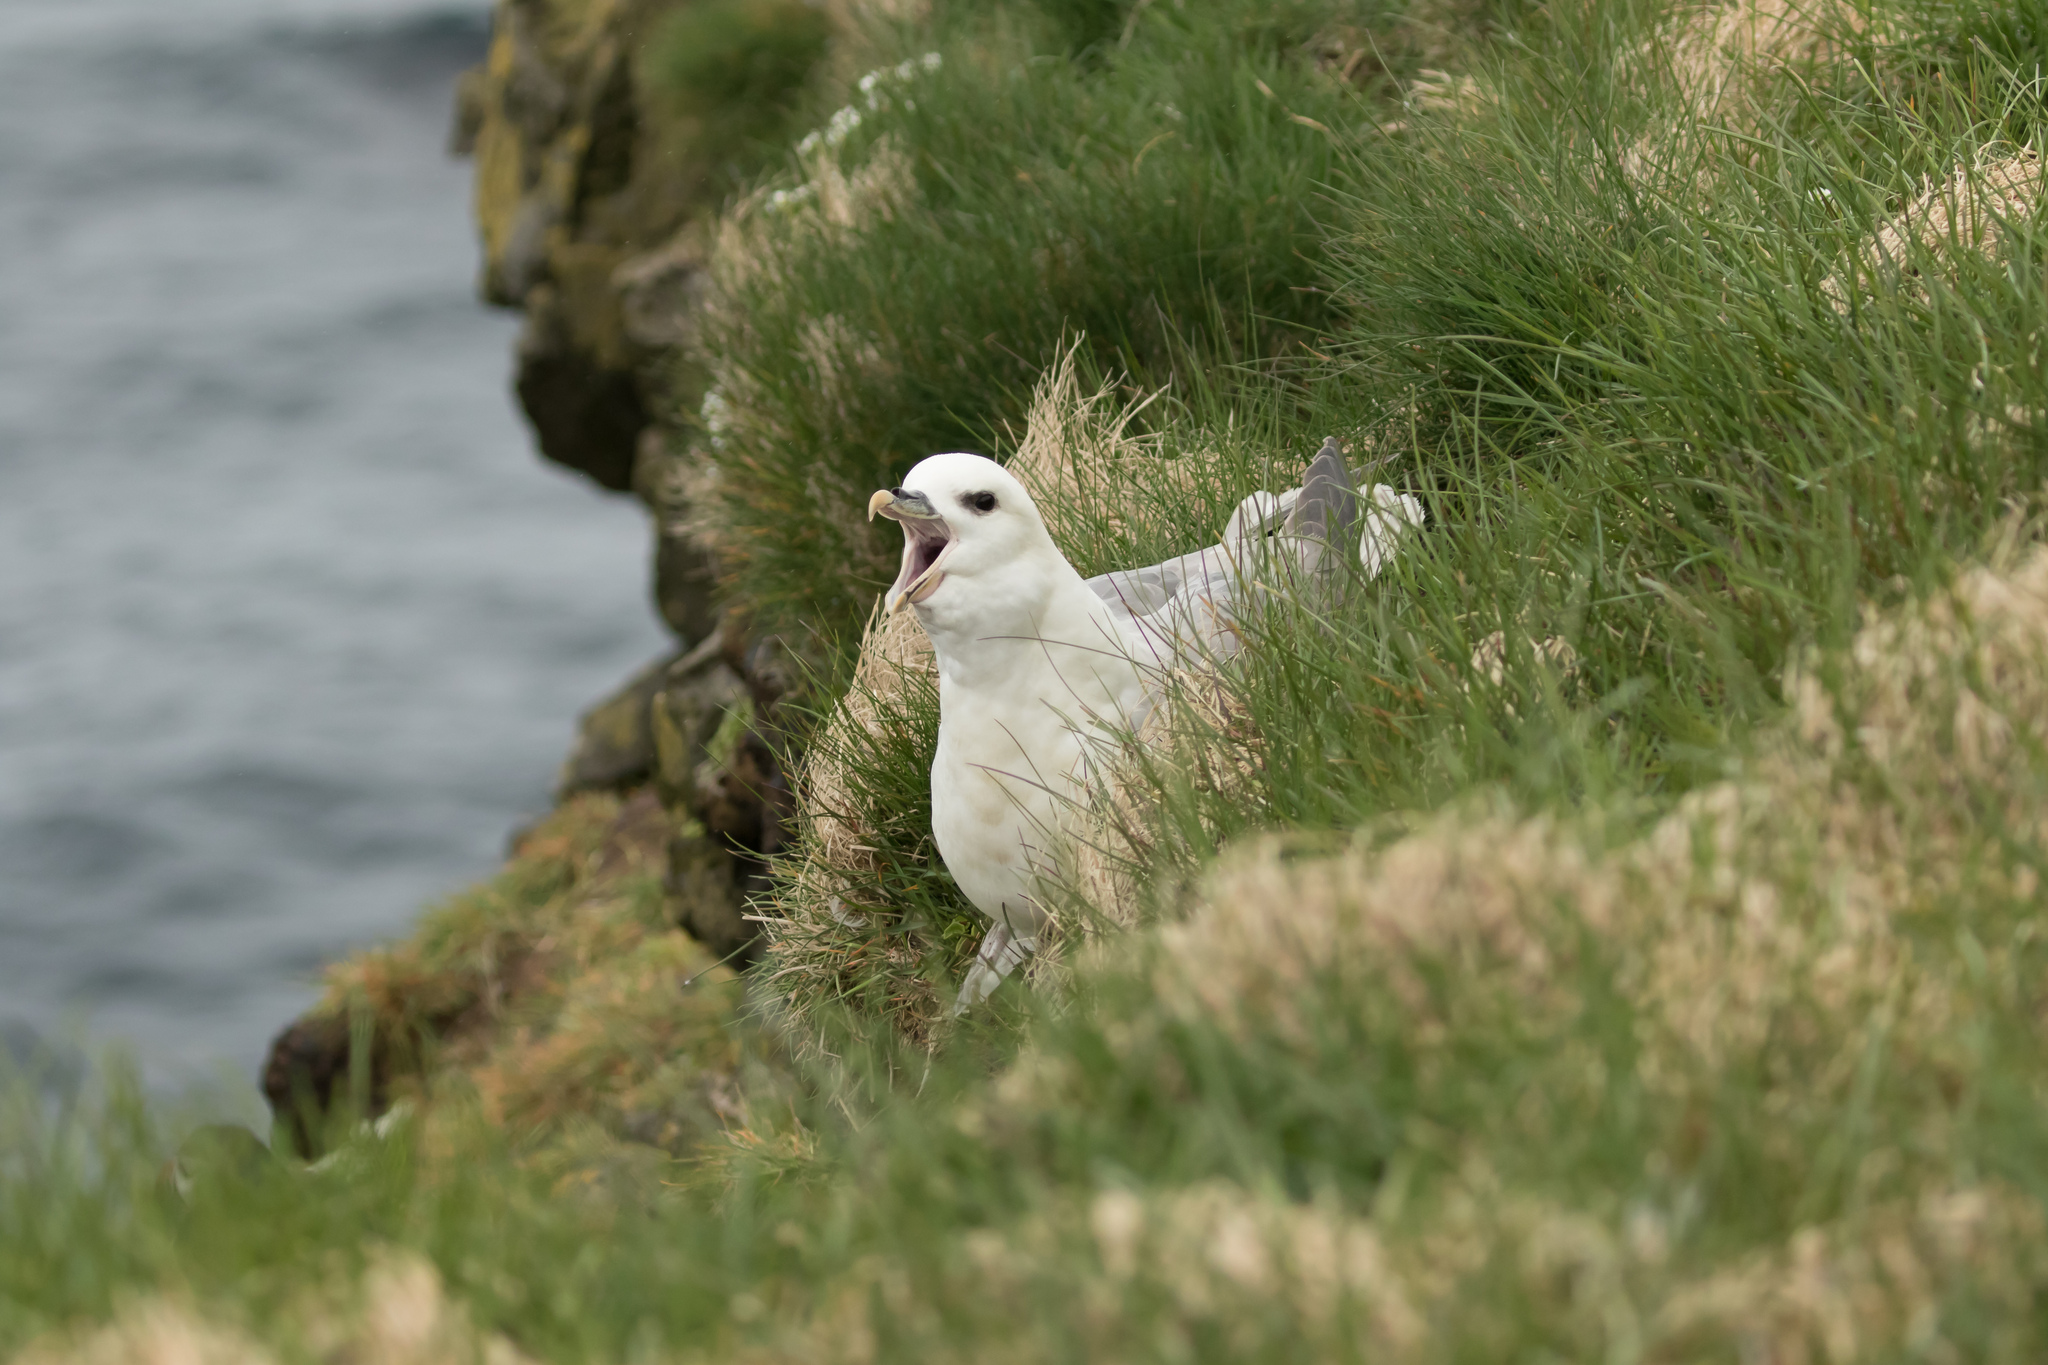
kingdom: Animalia
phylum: Chordata
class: Aves
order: Procellariiformes
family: Procellariidae
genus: Fulmarus
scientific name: Fulmarus glacialis
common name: Northern fulmar
